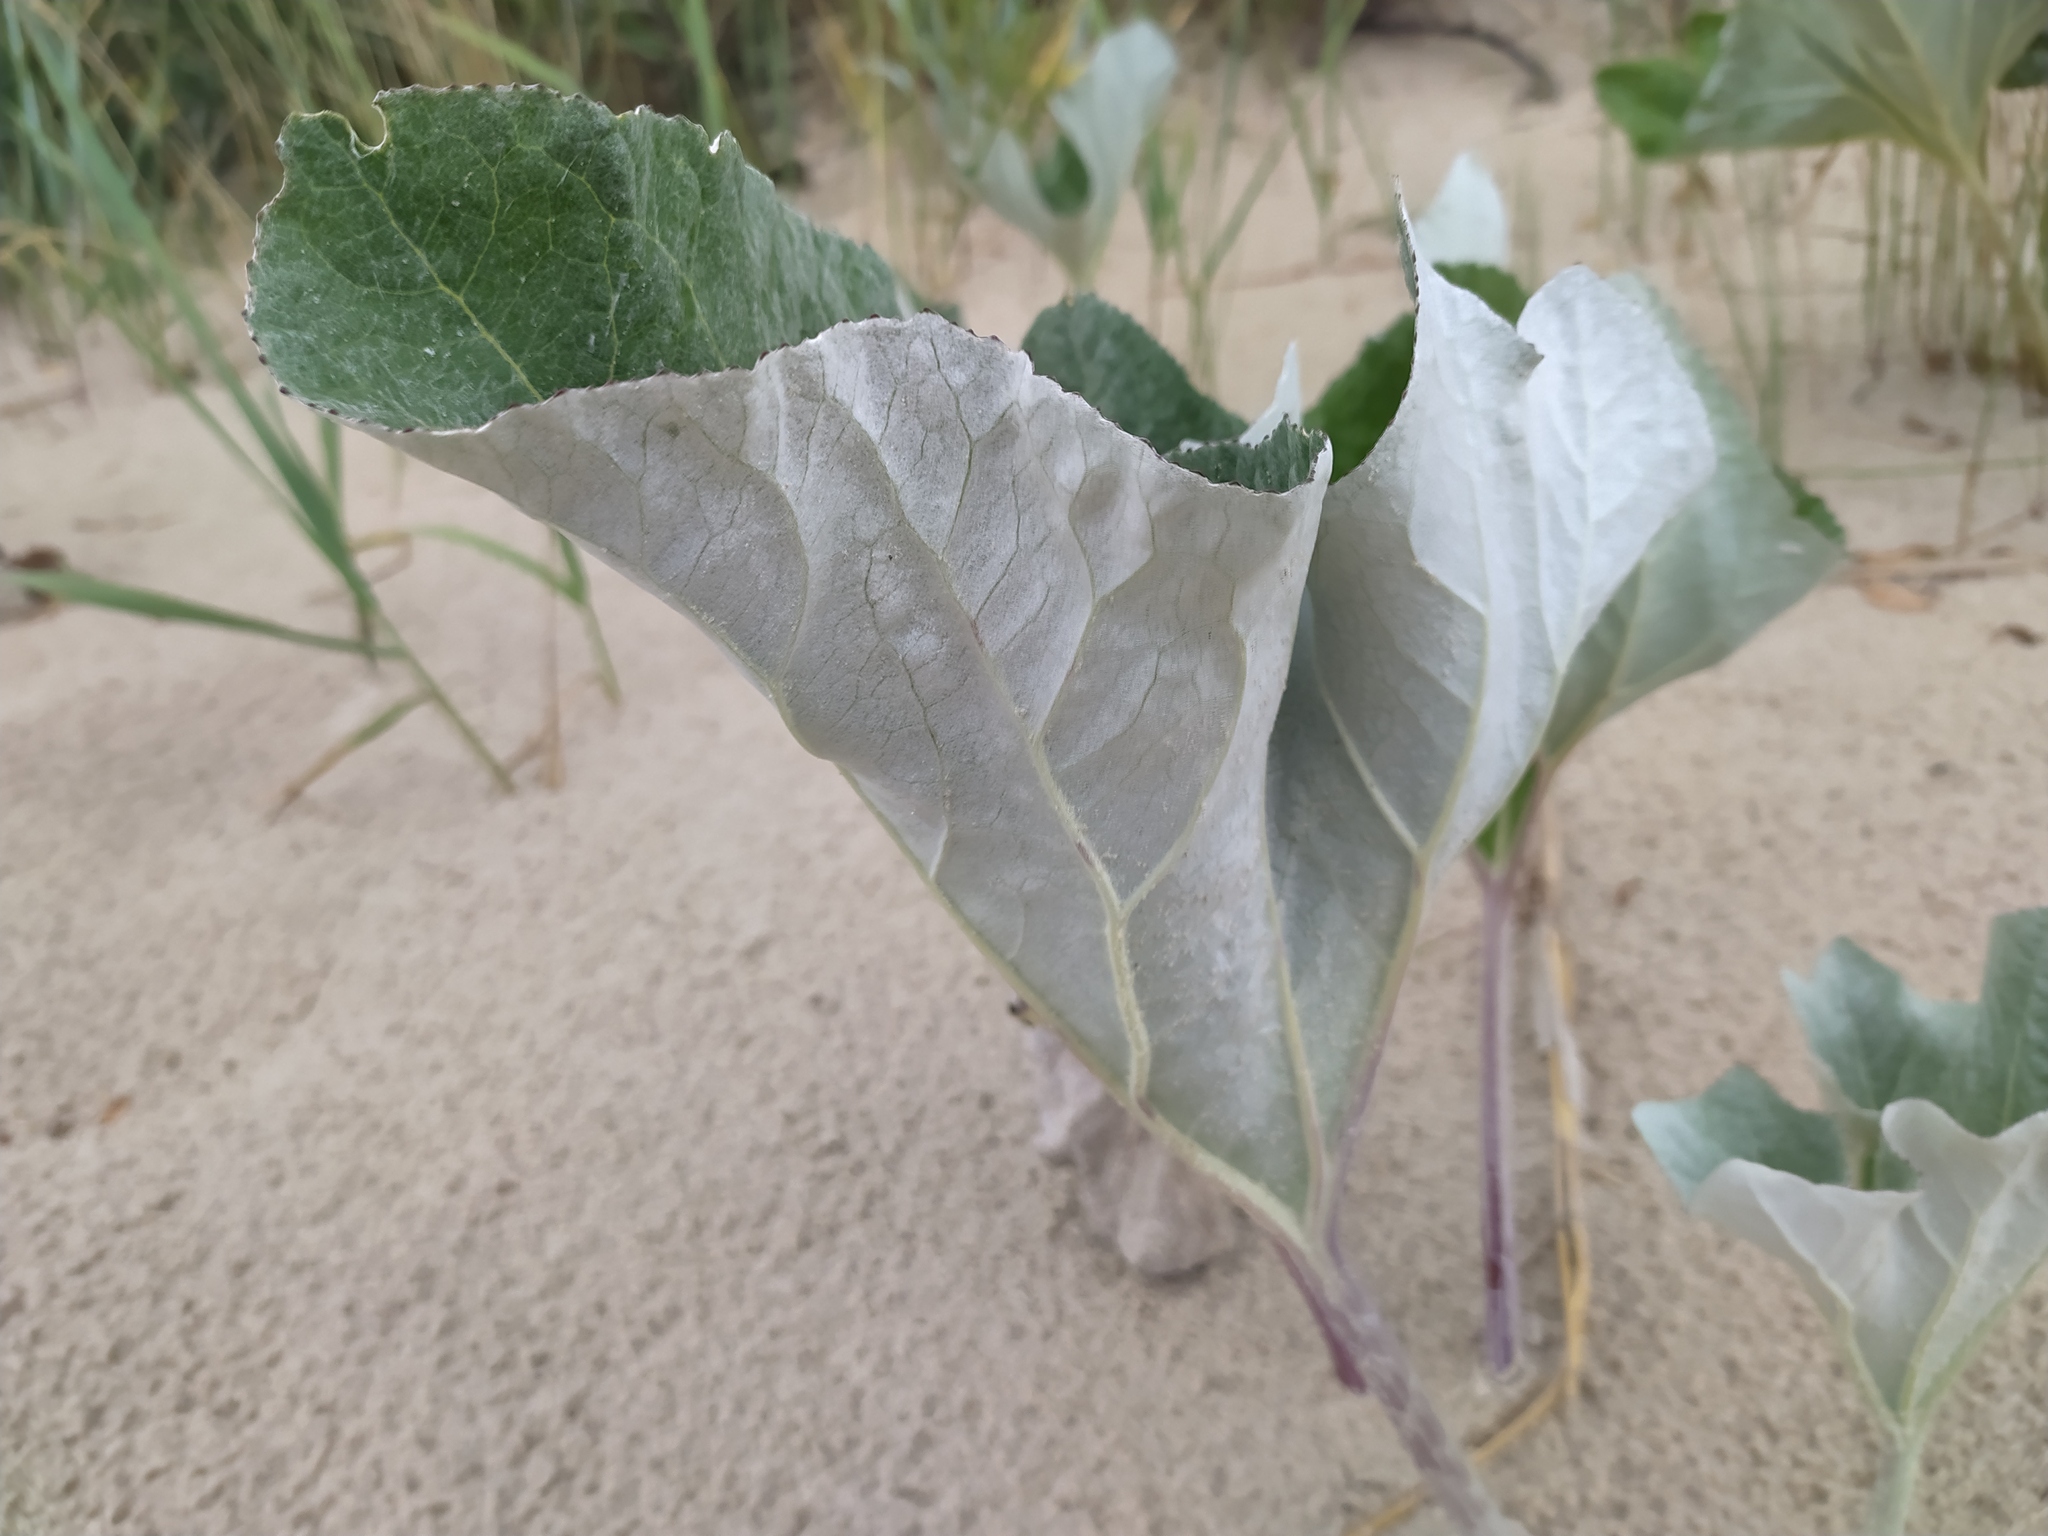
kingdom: Plantae
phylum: Tracheophyta
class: Magnoliopsida
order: Asterales
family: Asteraceae
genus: Petasites
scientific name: Petasites spurius
